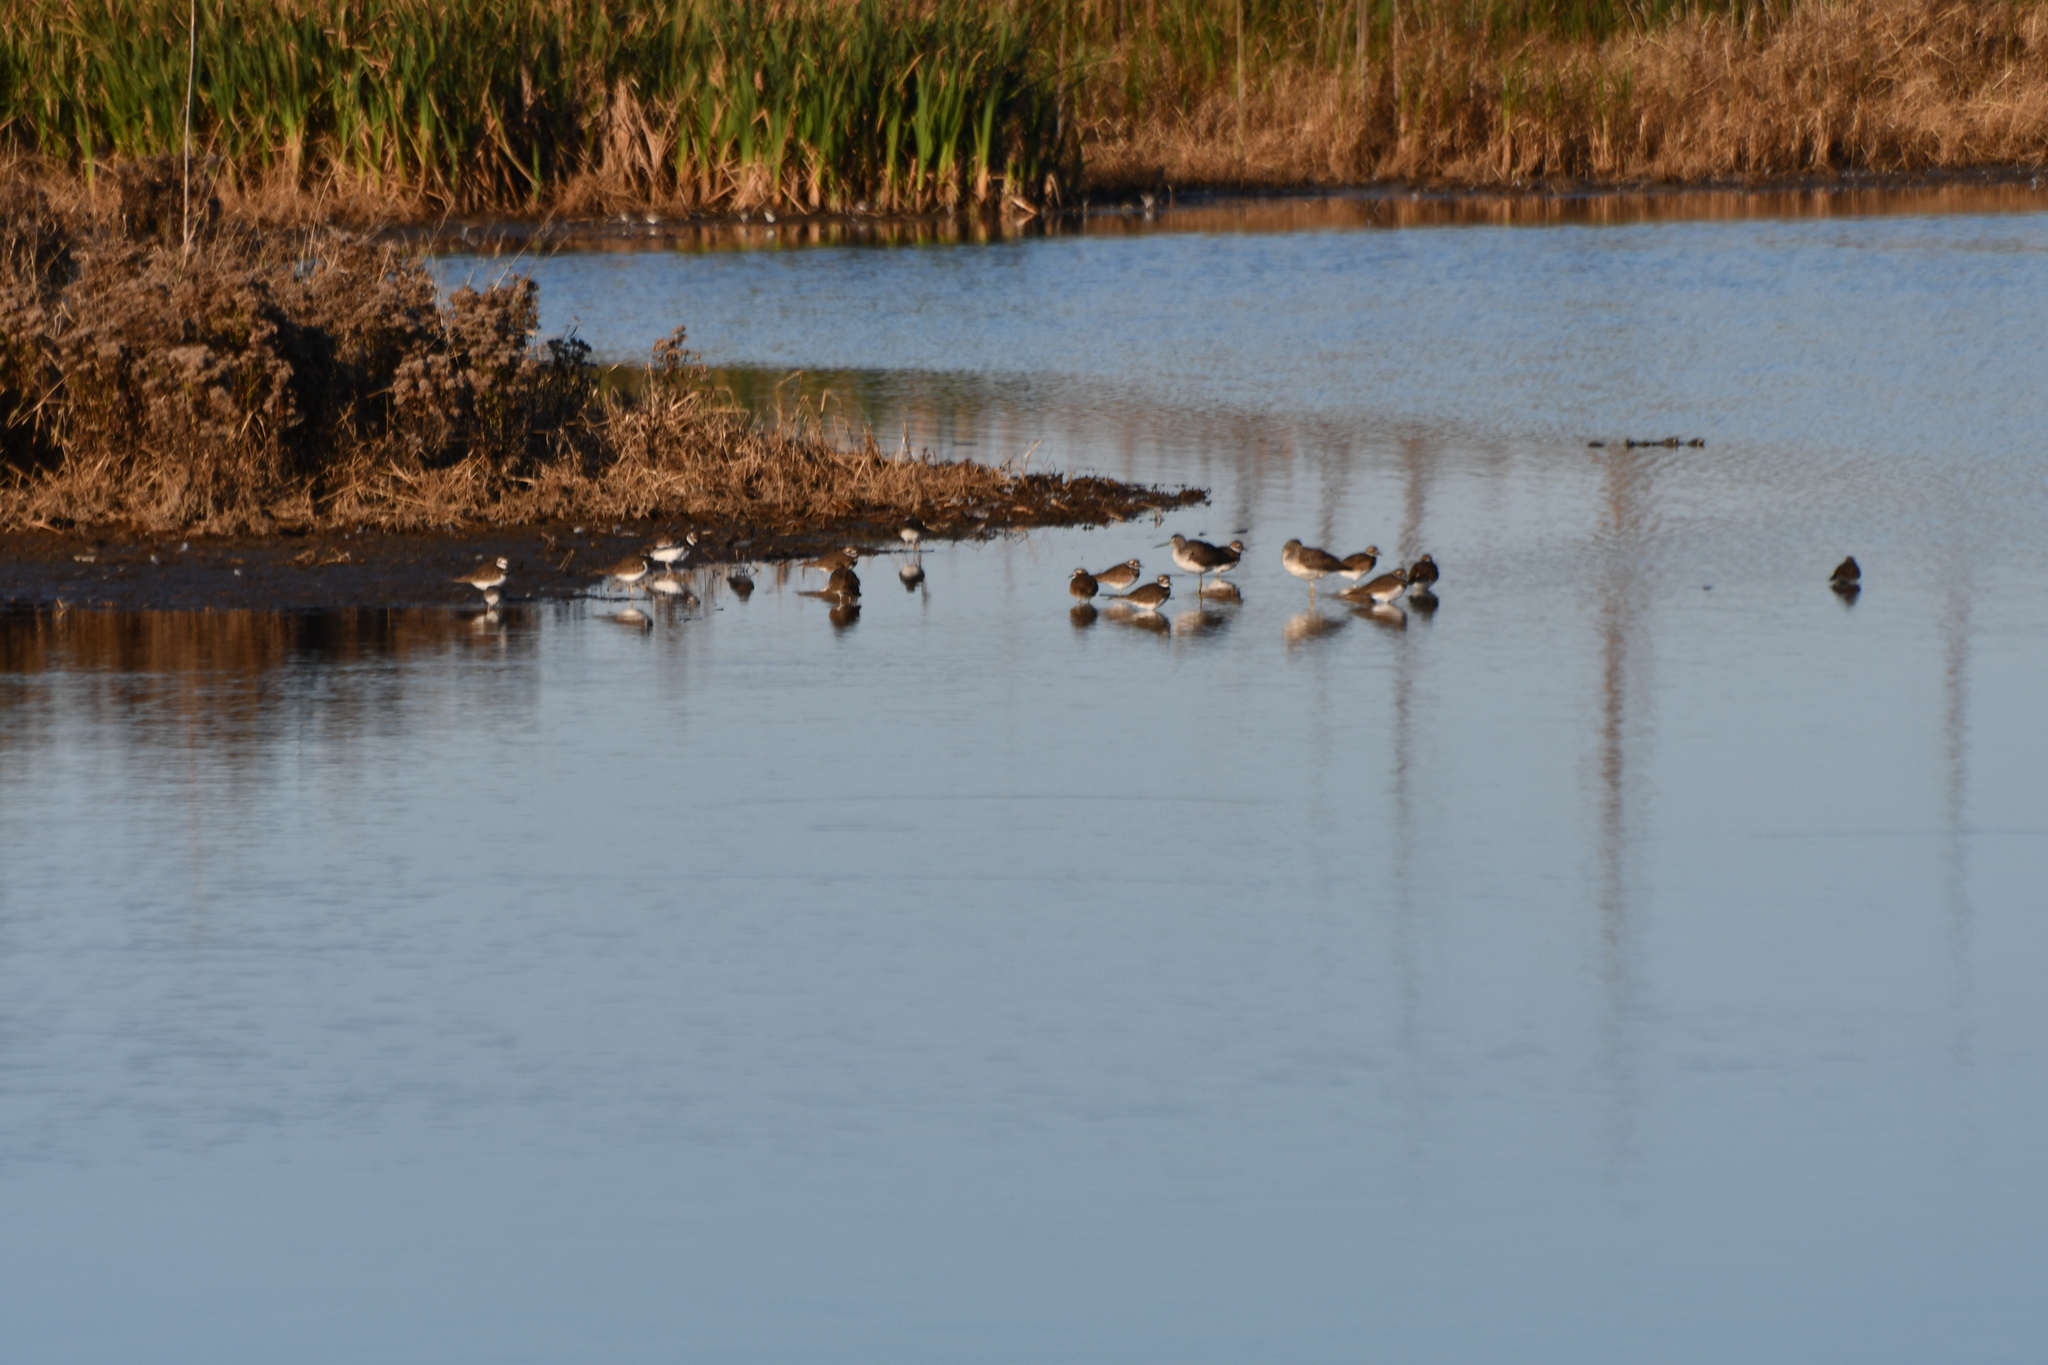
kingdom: Animalia
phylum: Chordata
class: Aves
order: Charadriiformes
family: Charadriidae
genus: Charadrius
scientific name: Charadrius vociferus
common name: Killdeer
